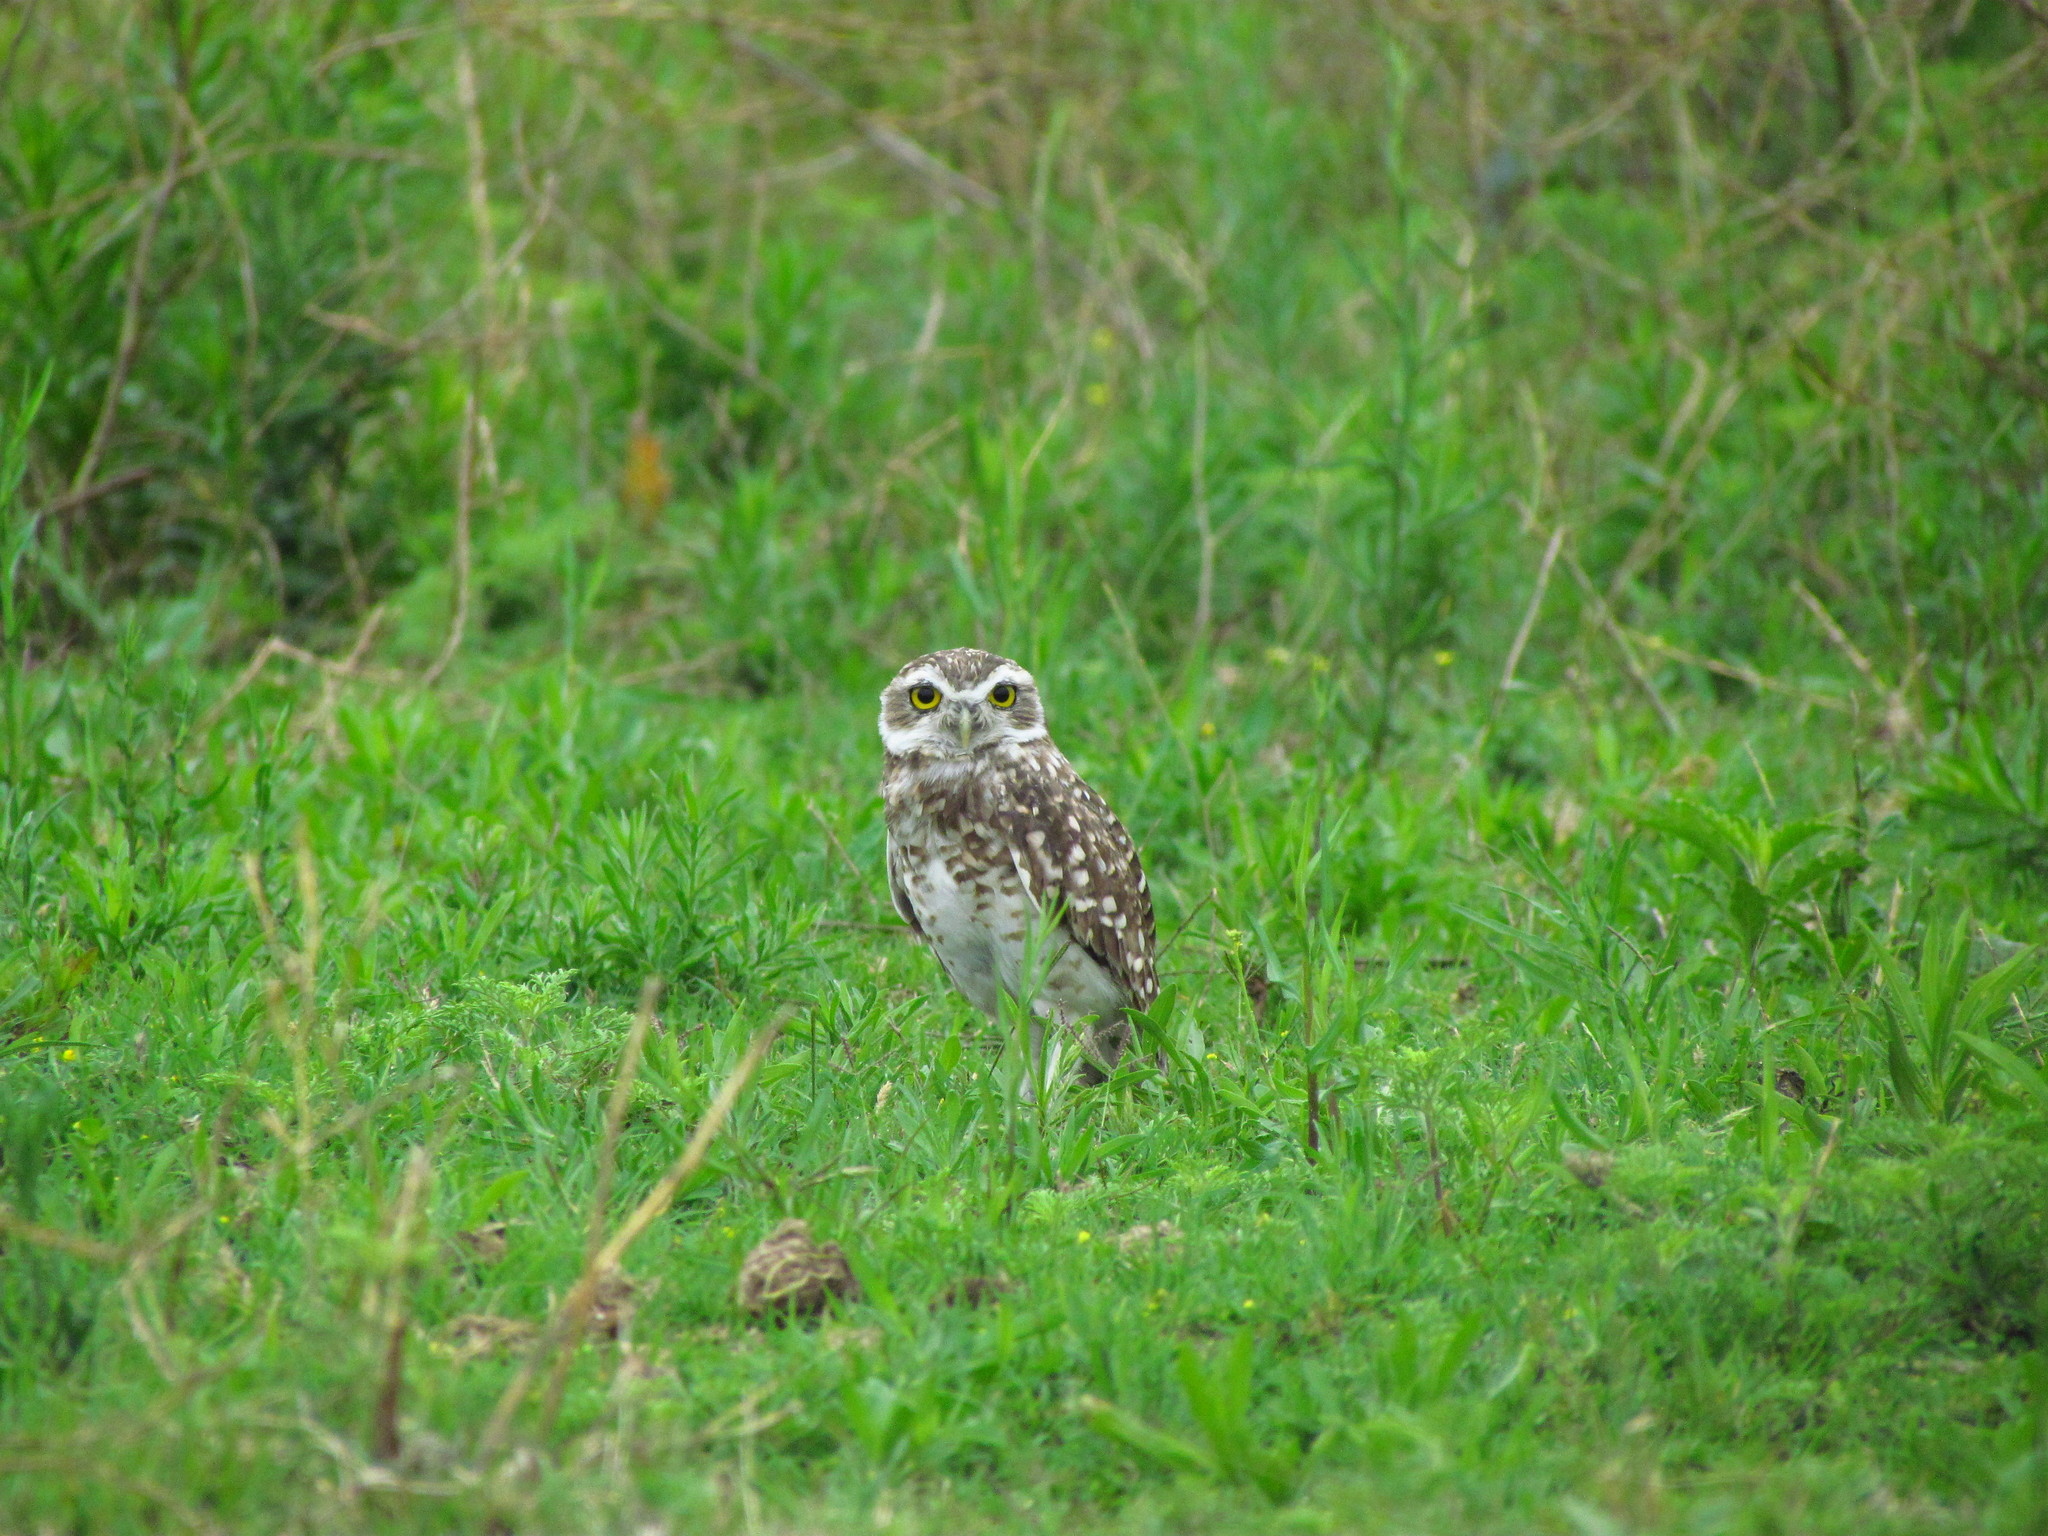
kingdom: Animalia
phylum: Chordata
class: Aves
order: Strigiformes
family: Strigidae
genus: Athene
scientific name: Athene cunicularia
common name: Burrowing owl
